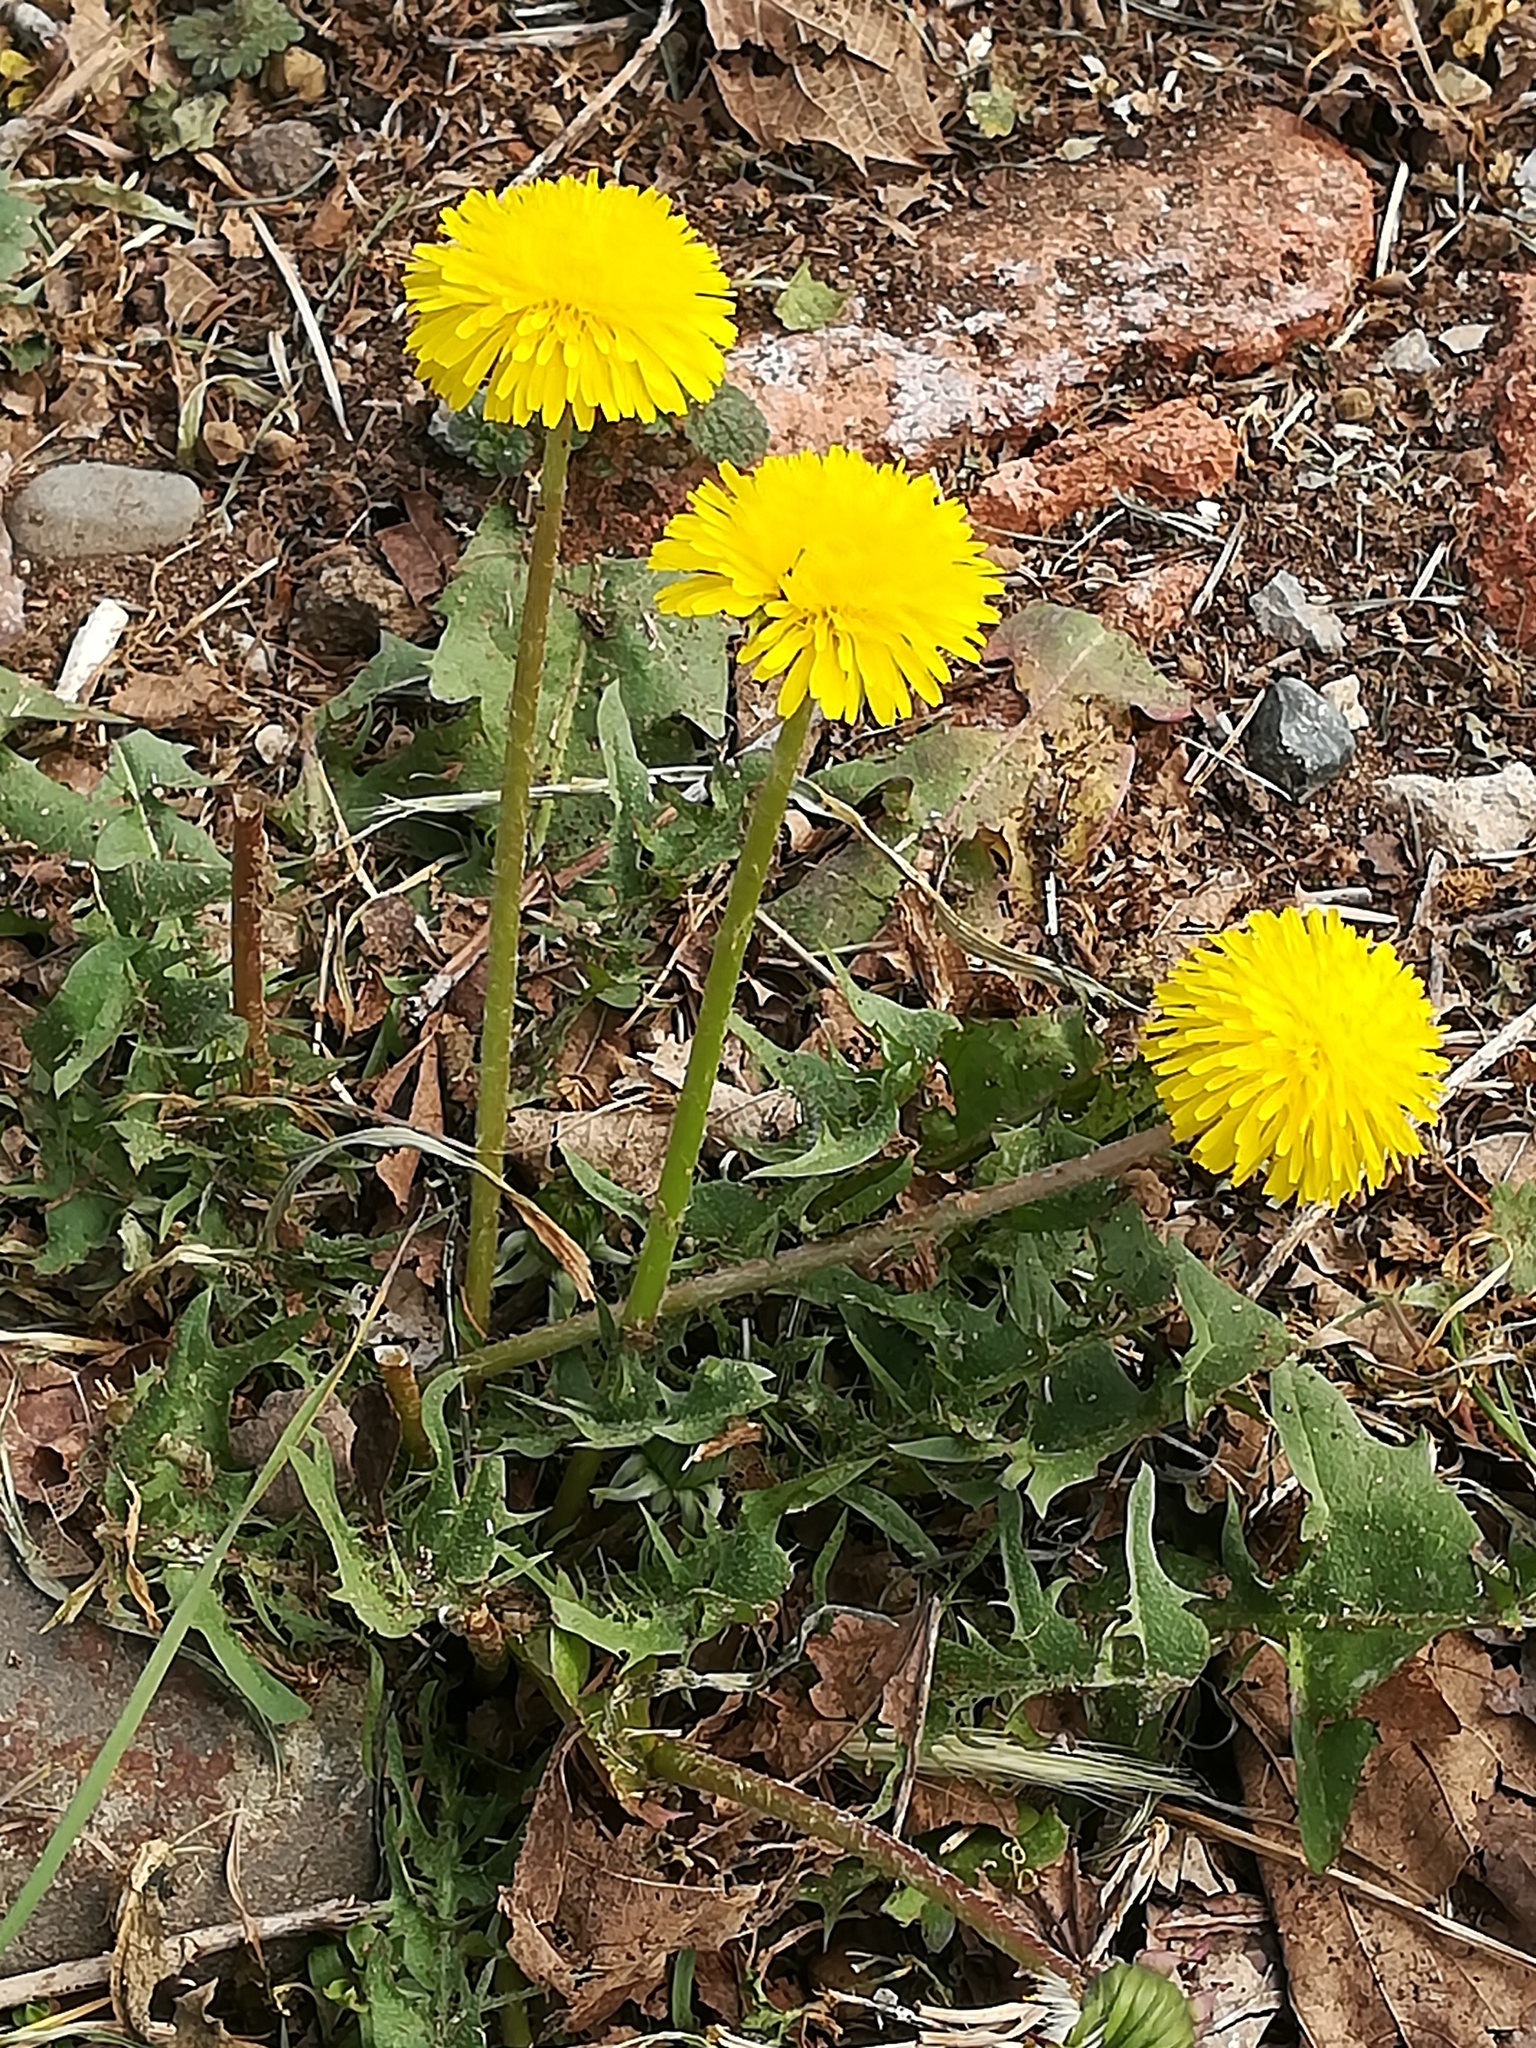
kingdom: Plantae
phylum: Tracheophyta
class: Magnoliopsida
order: Asterales
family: Asteraceae
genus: Taraxacum
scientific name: Taraxacum officinale
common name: Common dandelion
